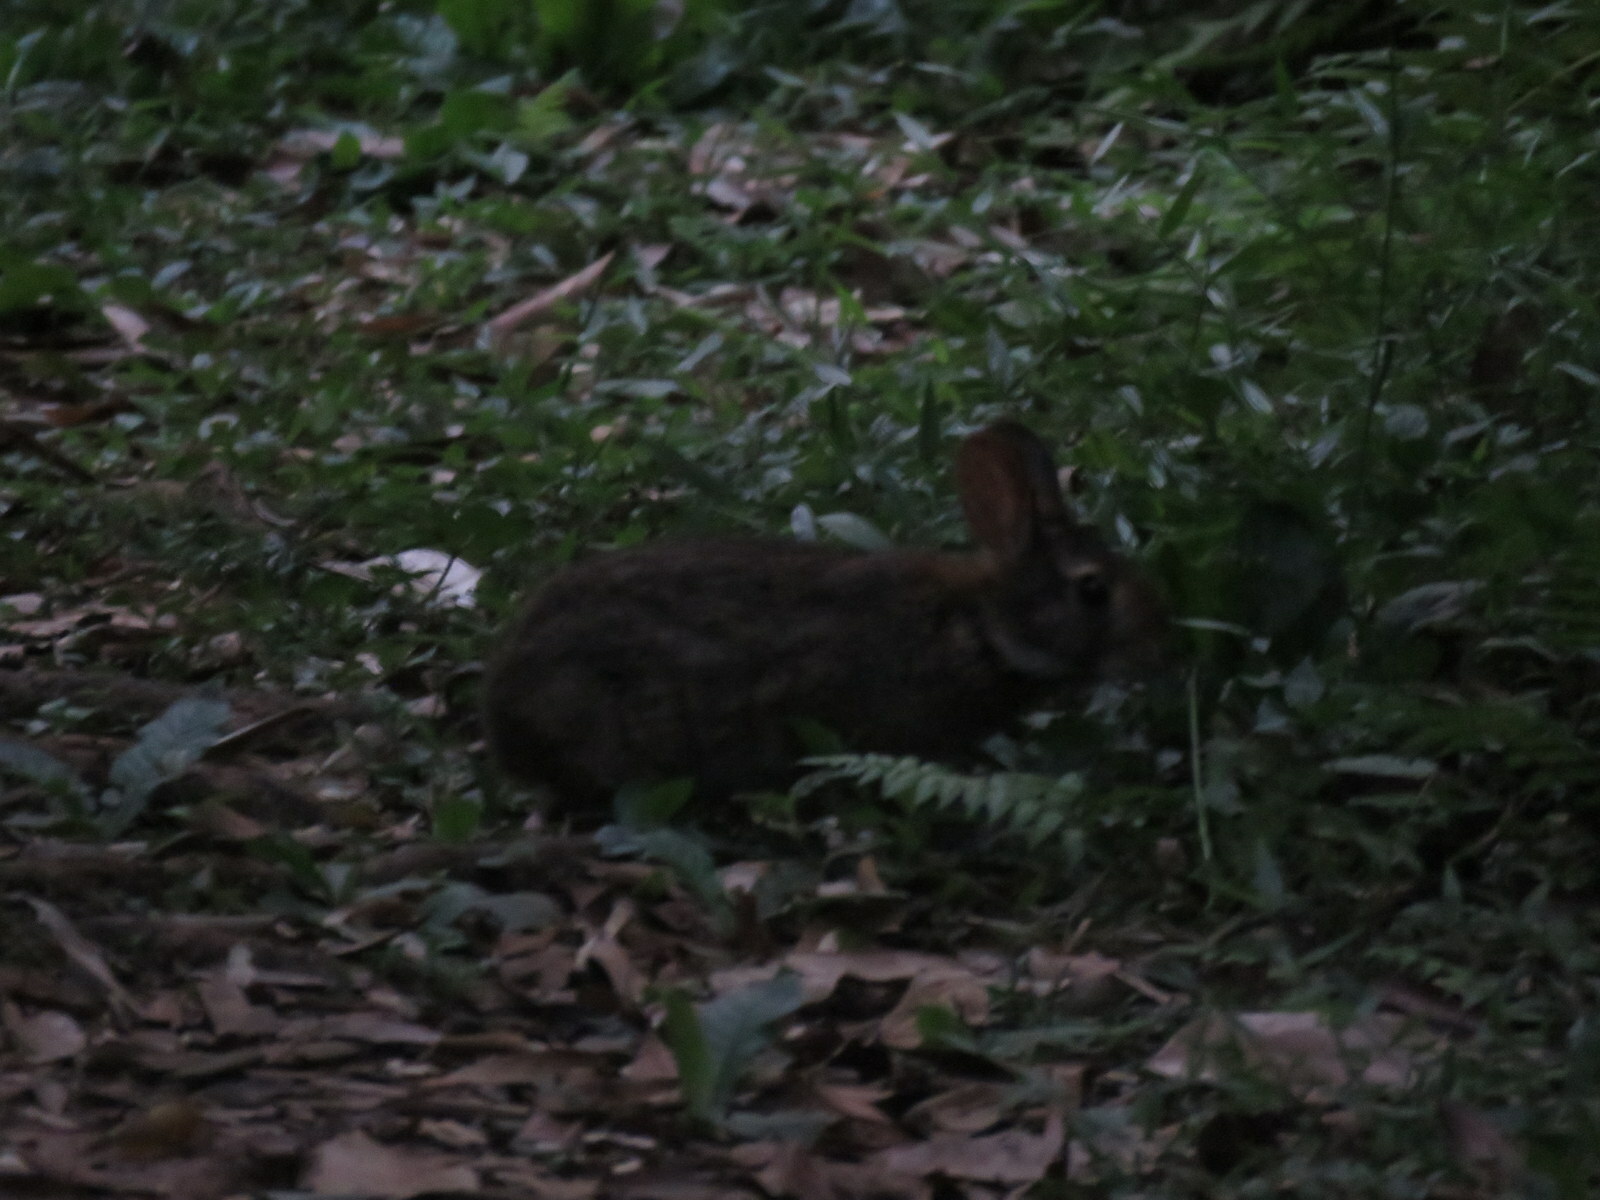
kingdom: Animalia
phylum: Chordata
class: Mammalia
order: Lagomorpha
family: Leporidae
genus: Sylvilagus
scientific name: Sylvilagus brasiliensis
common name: Tapeti
